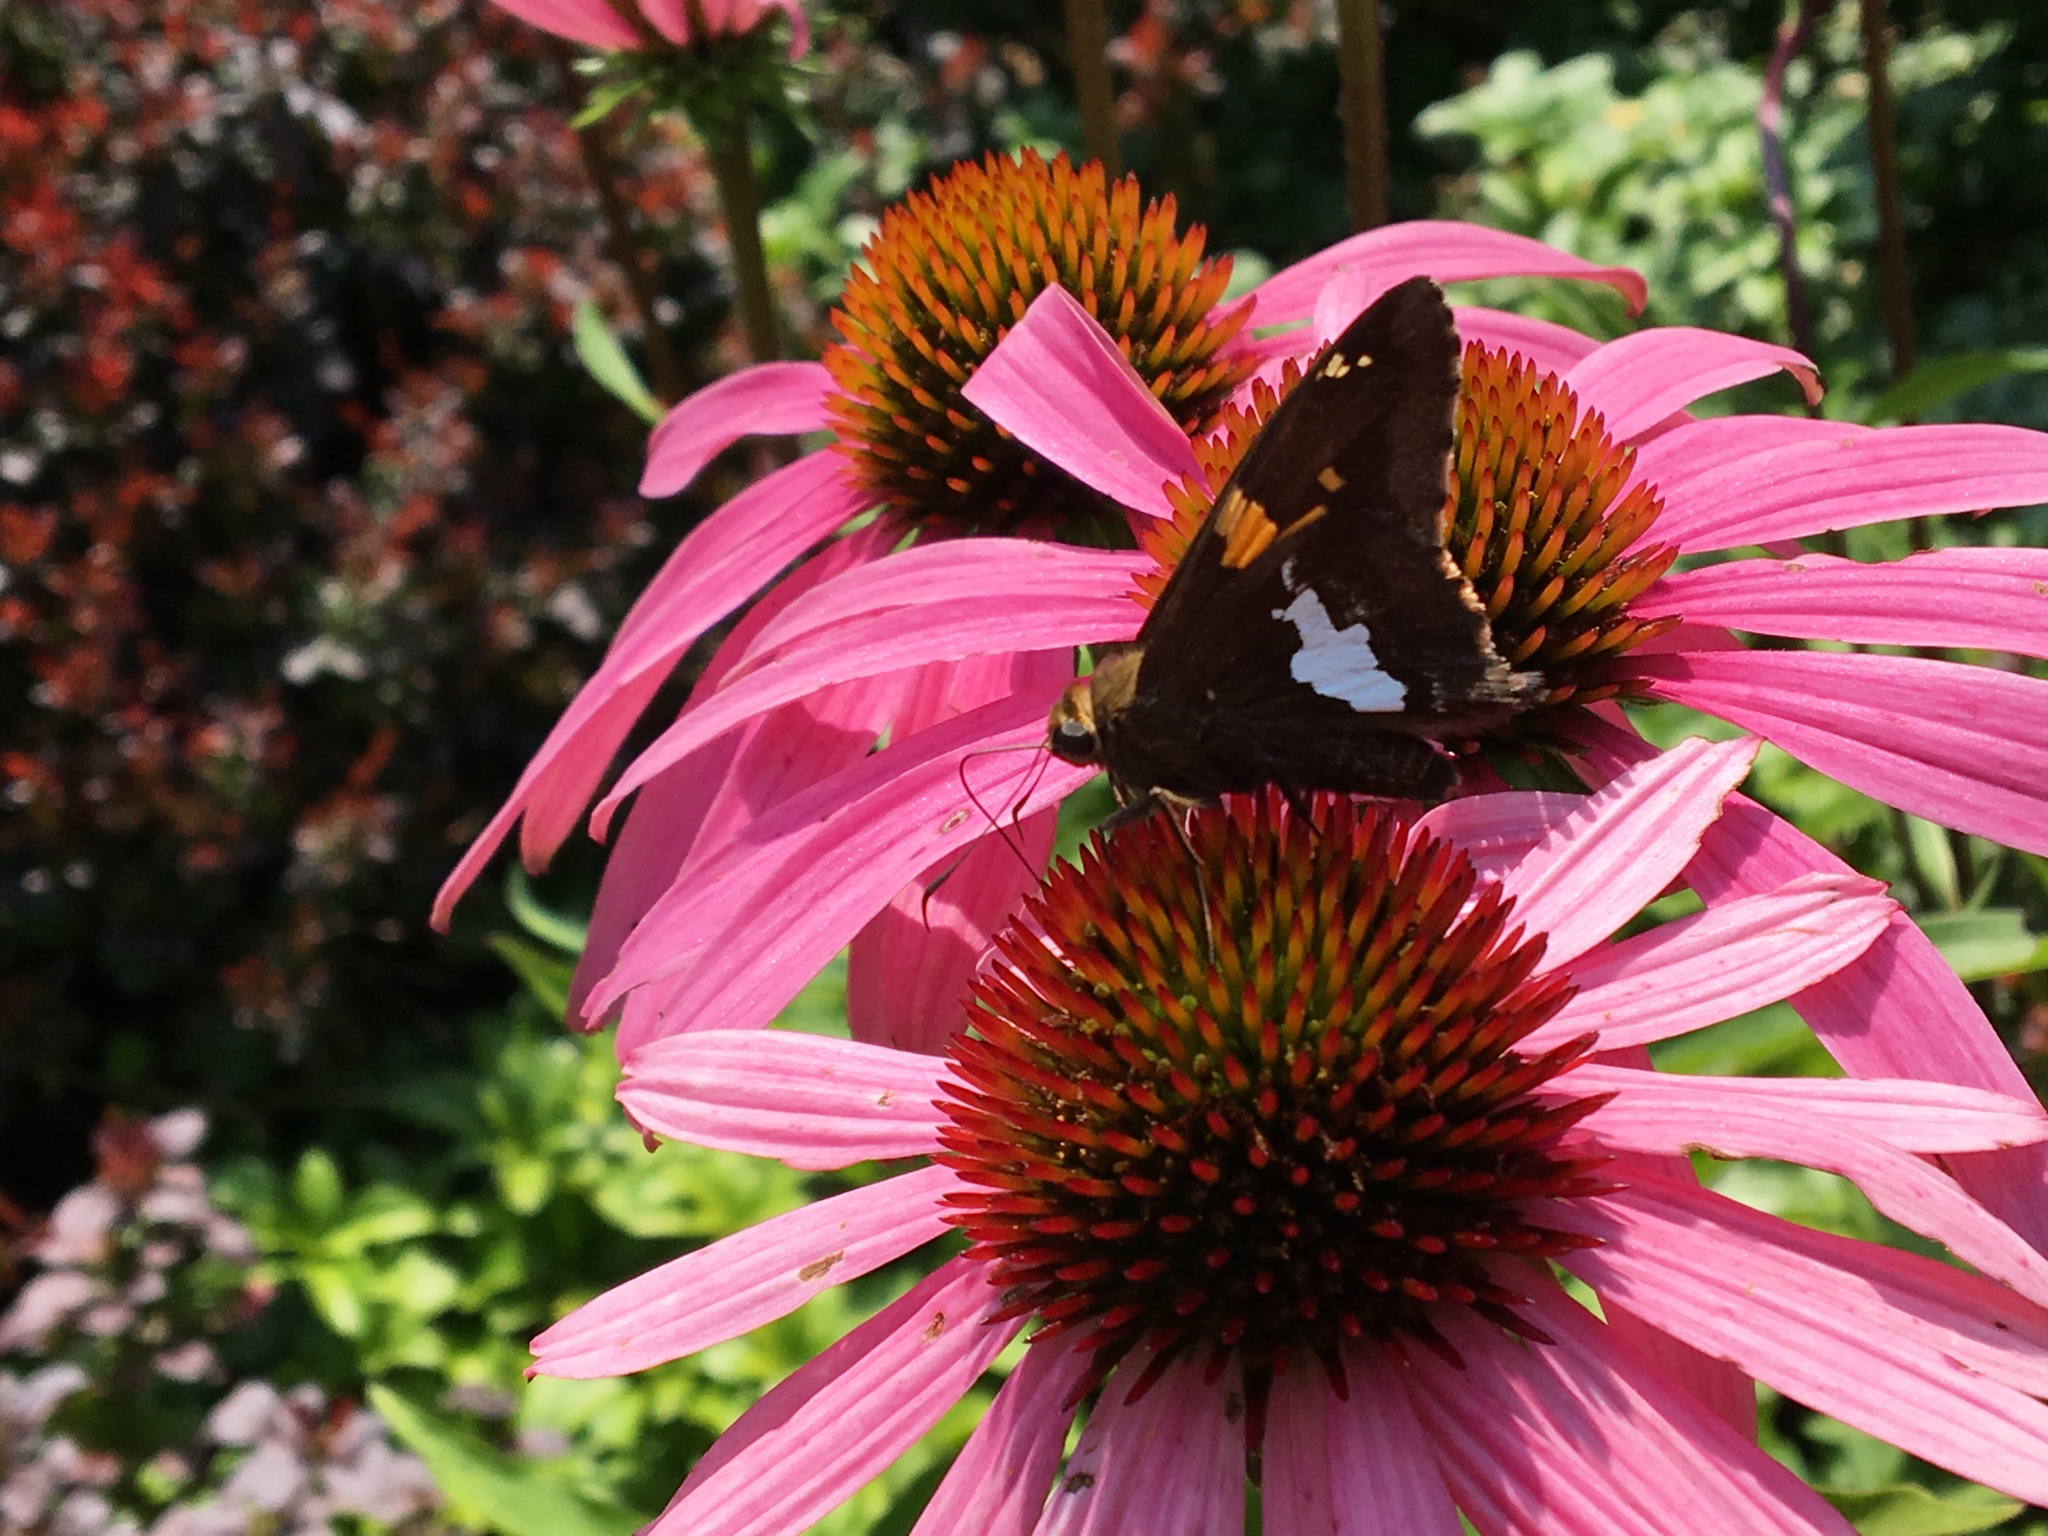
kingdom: Animalia
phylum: Arthropoda
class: Insecta
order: Lepidoptera
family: Hesperiidae
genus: Epargyreus
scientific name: Epargyreus clarus
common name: Silver-spotted skipper
